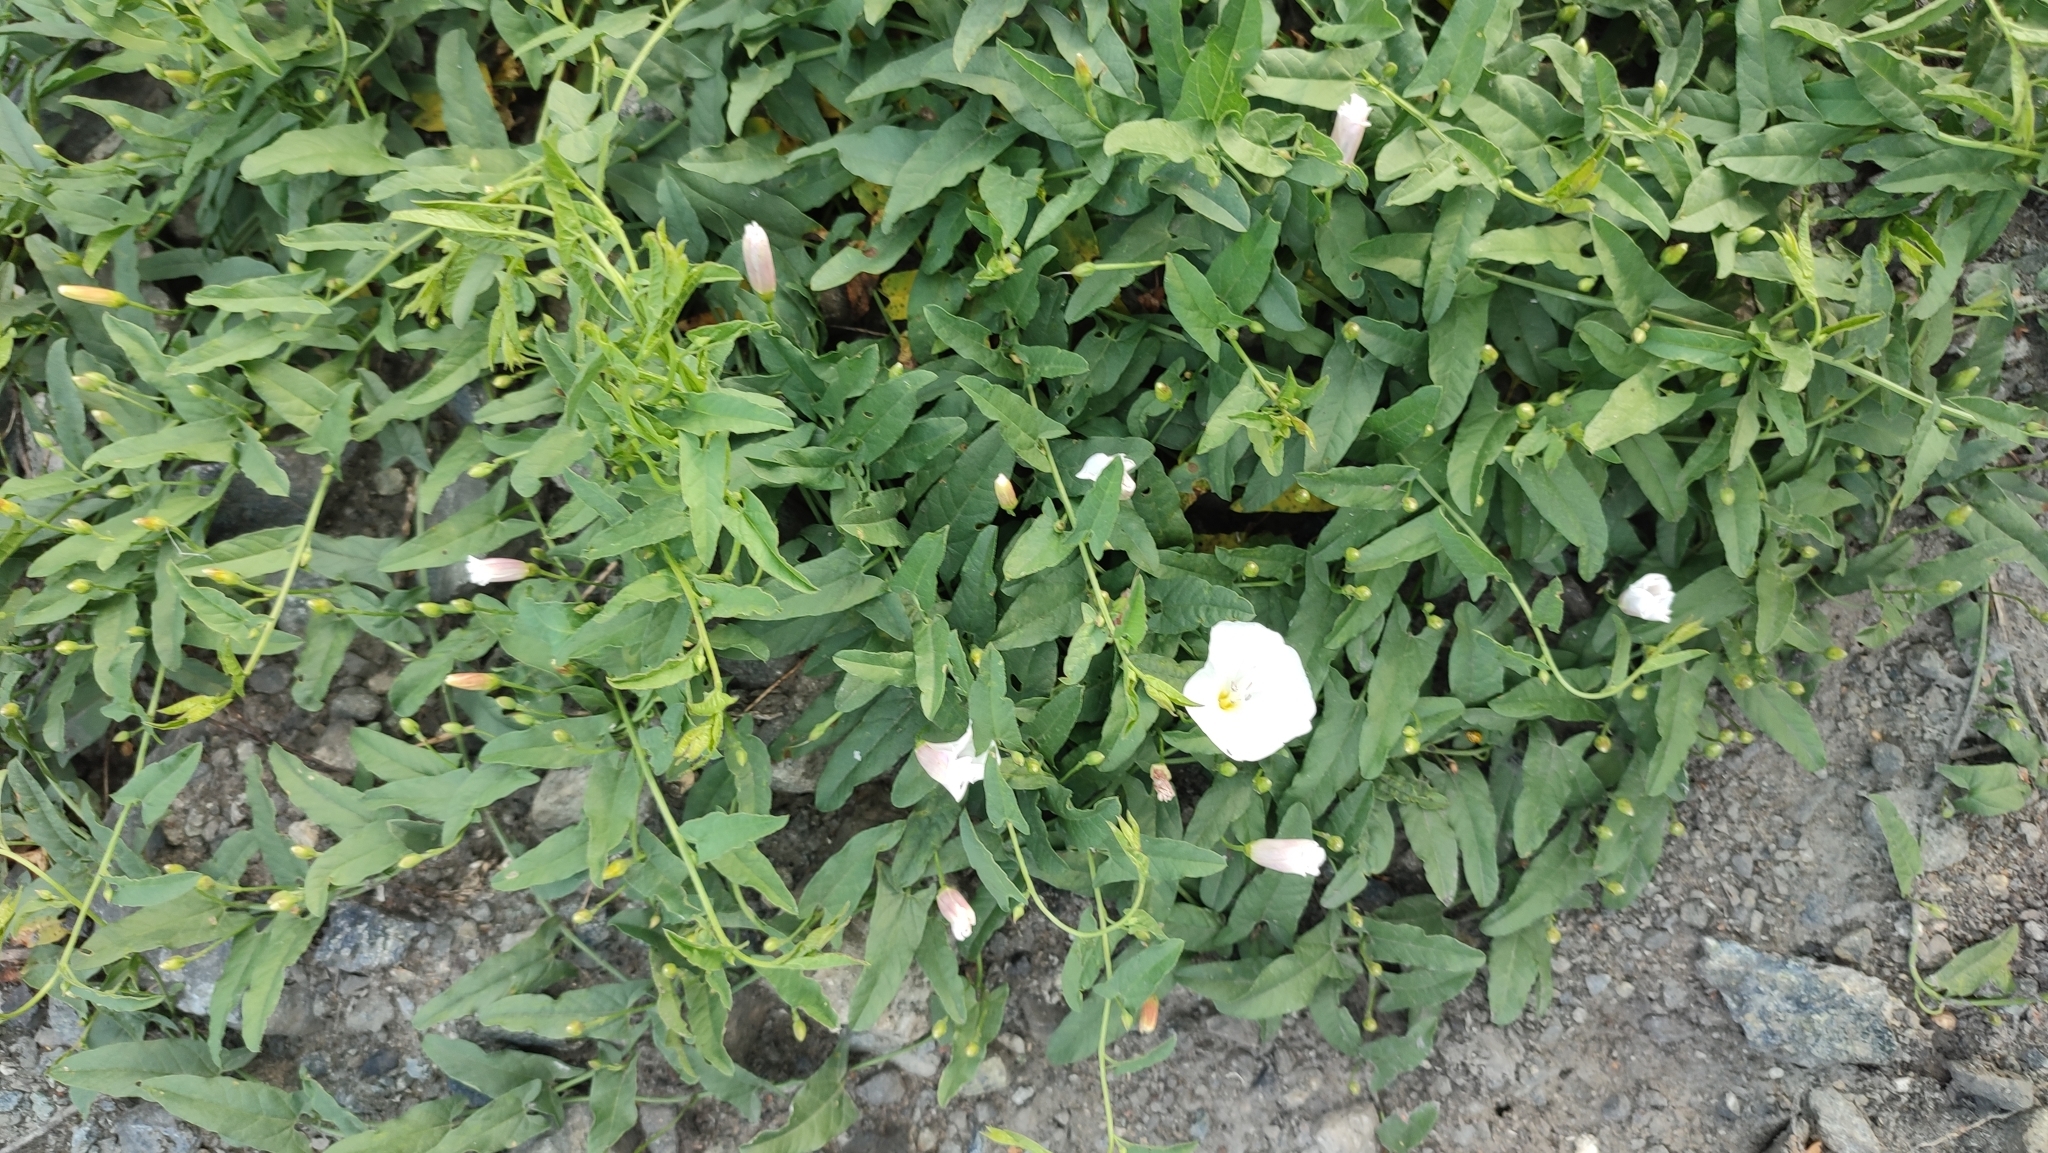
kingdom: Plantae
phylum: Tracheophyta
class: Magnoliopsida
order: Solanales
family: Convolvulaceae
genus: Convolvulus
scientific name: Convolvulus arvensis
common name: Field bindweed
